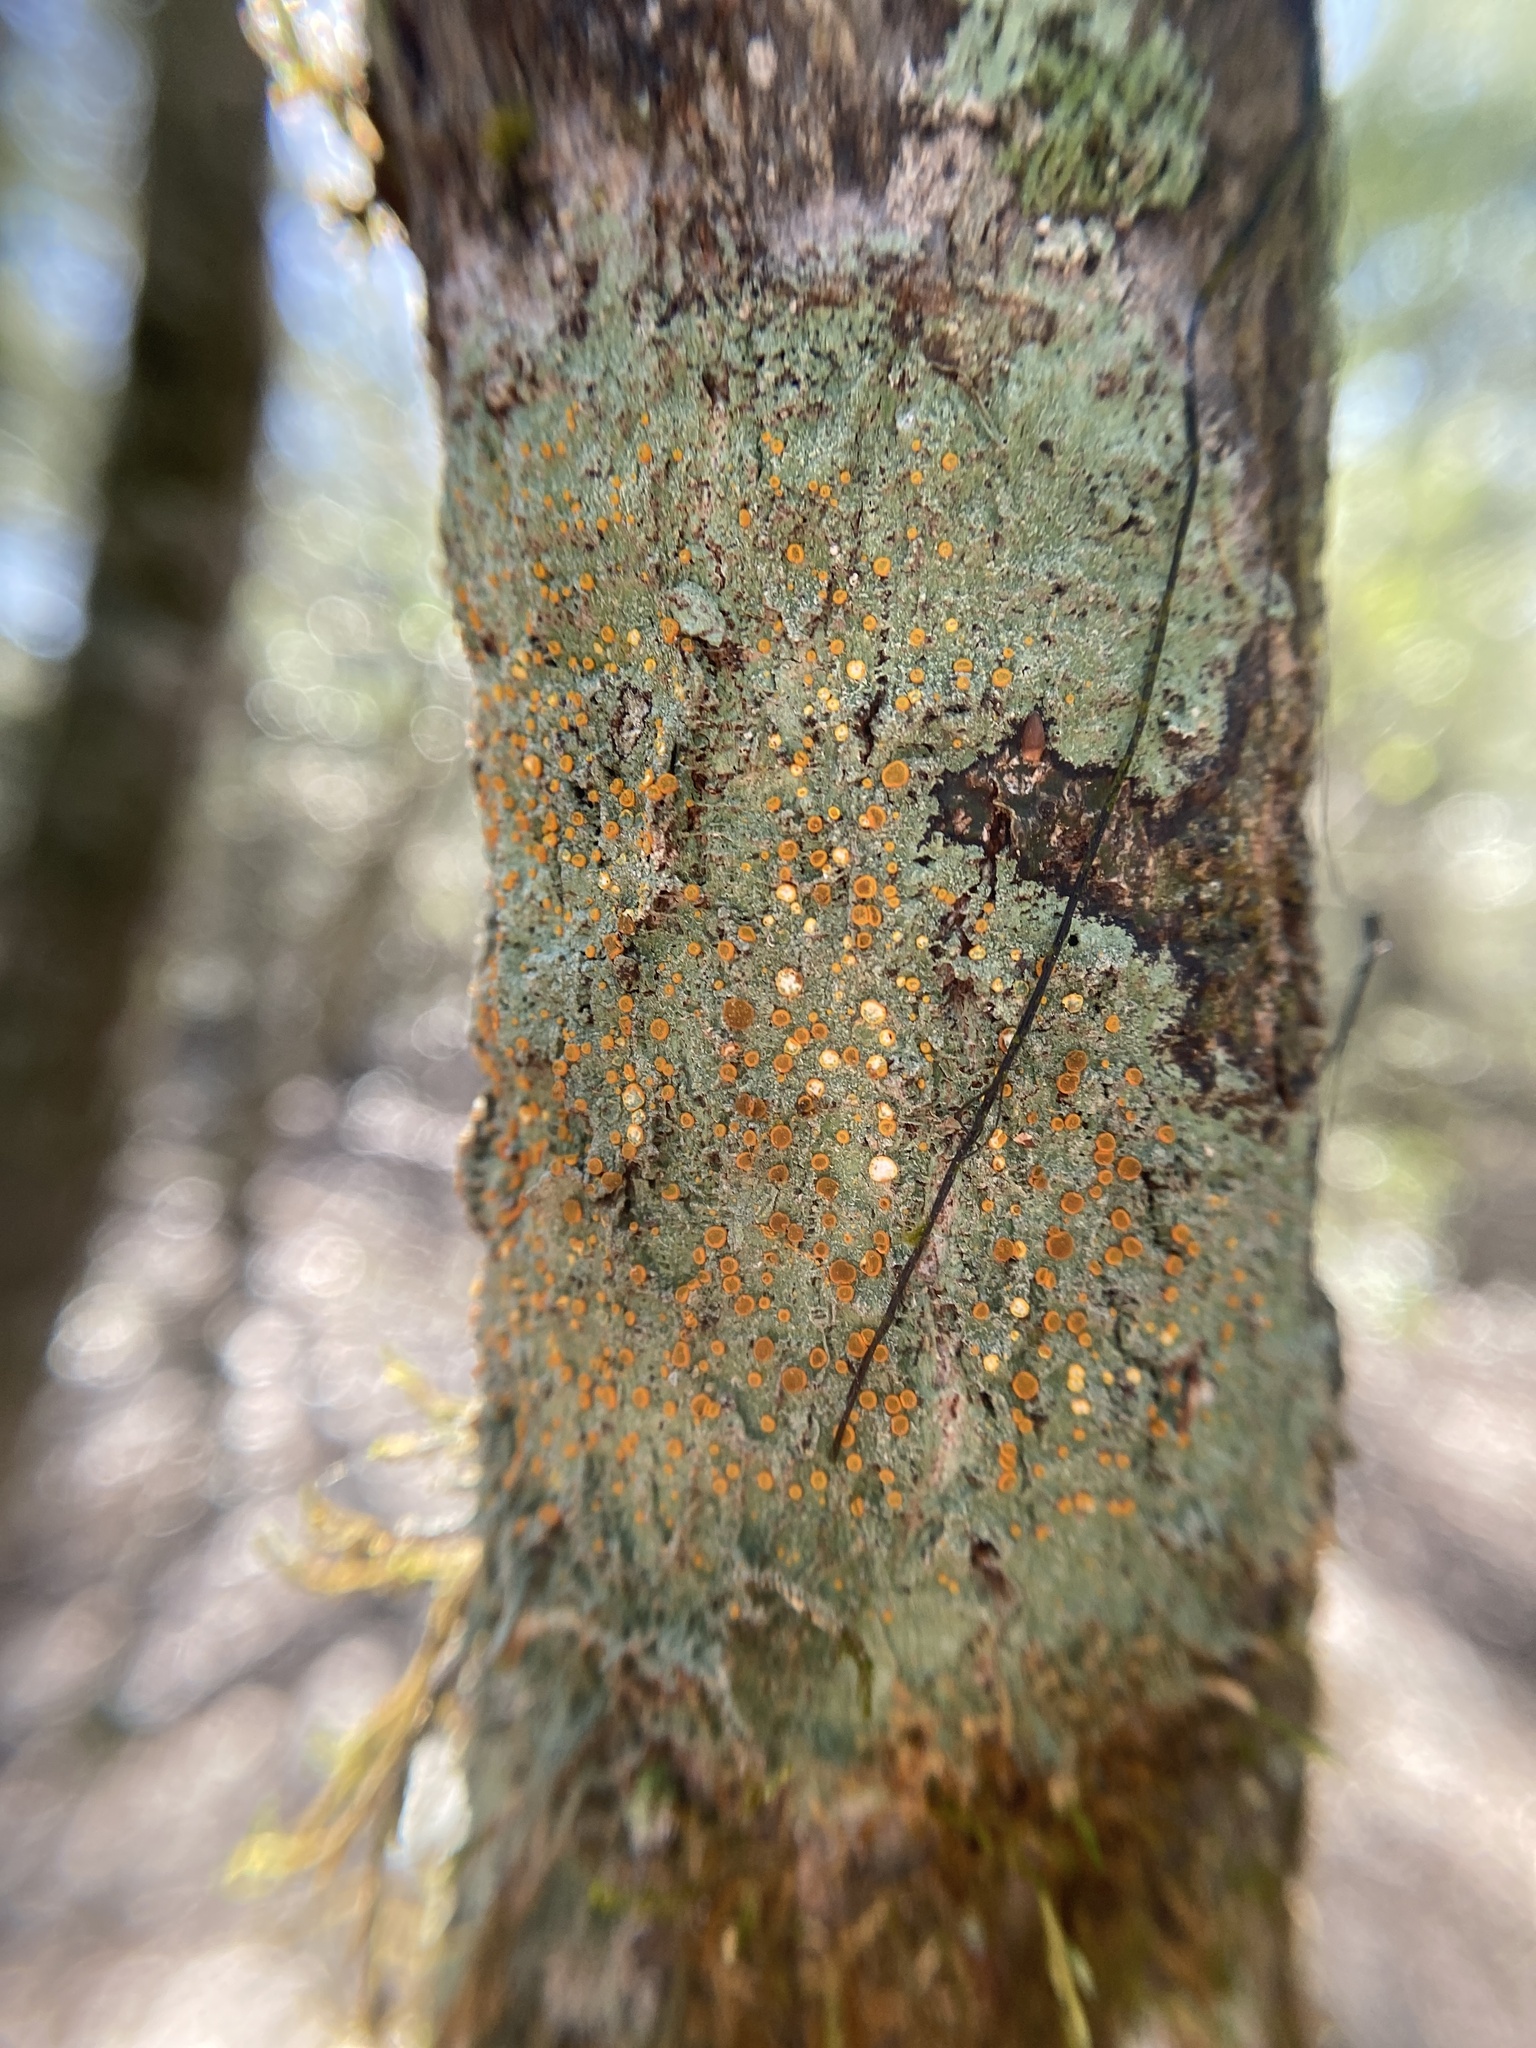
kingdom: Fungi
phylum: Ascomycota
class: Lecanoromycetes
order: Teloschistales
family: Brigantiaeaceae
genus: Brigantiaea
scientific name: Brigantiaea leucoxantha
